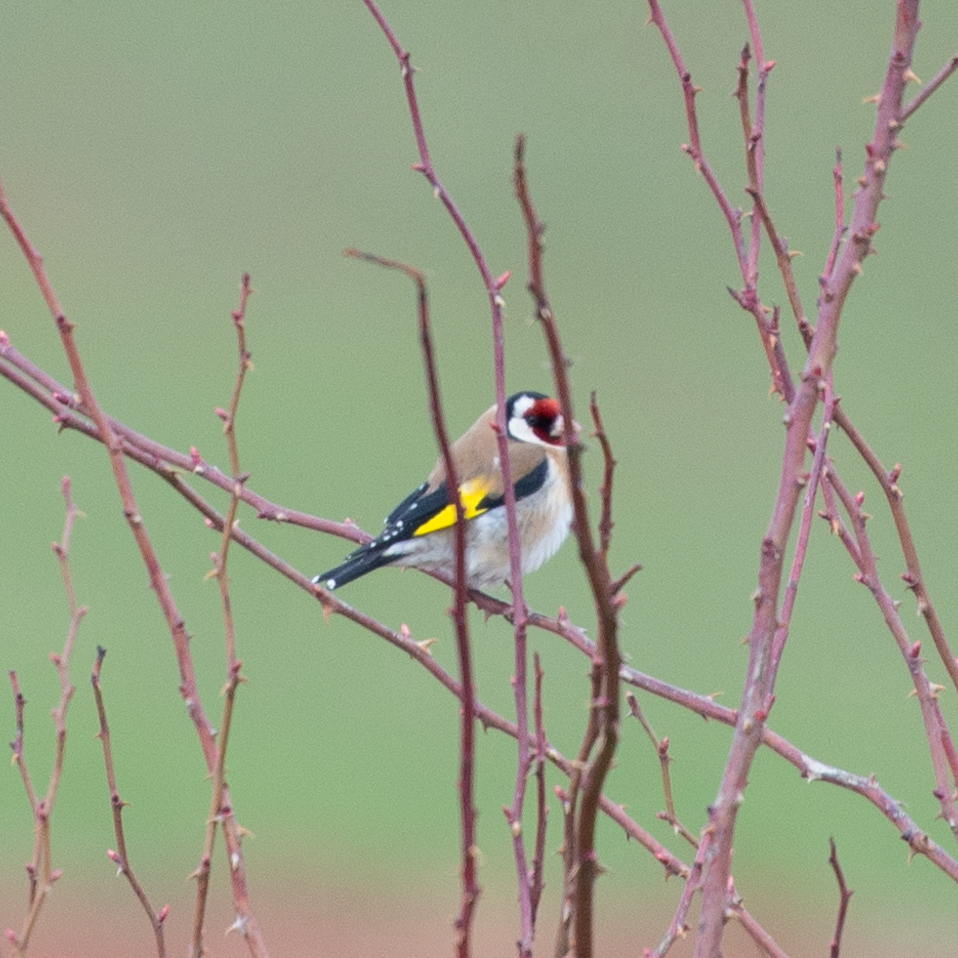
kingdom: Animalia
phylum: Chordata
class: Aves
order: Passeriformes
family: Fringillidae
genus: Carduelis
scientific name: Carduelis carduelis
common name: European goldfinch
